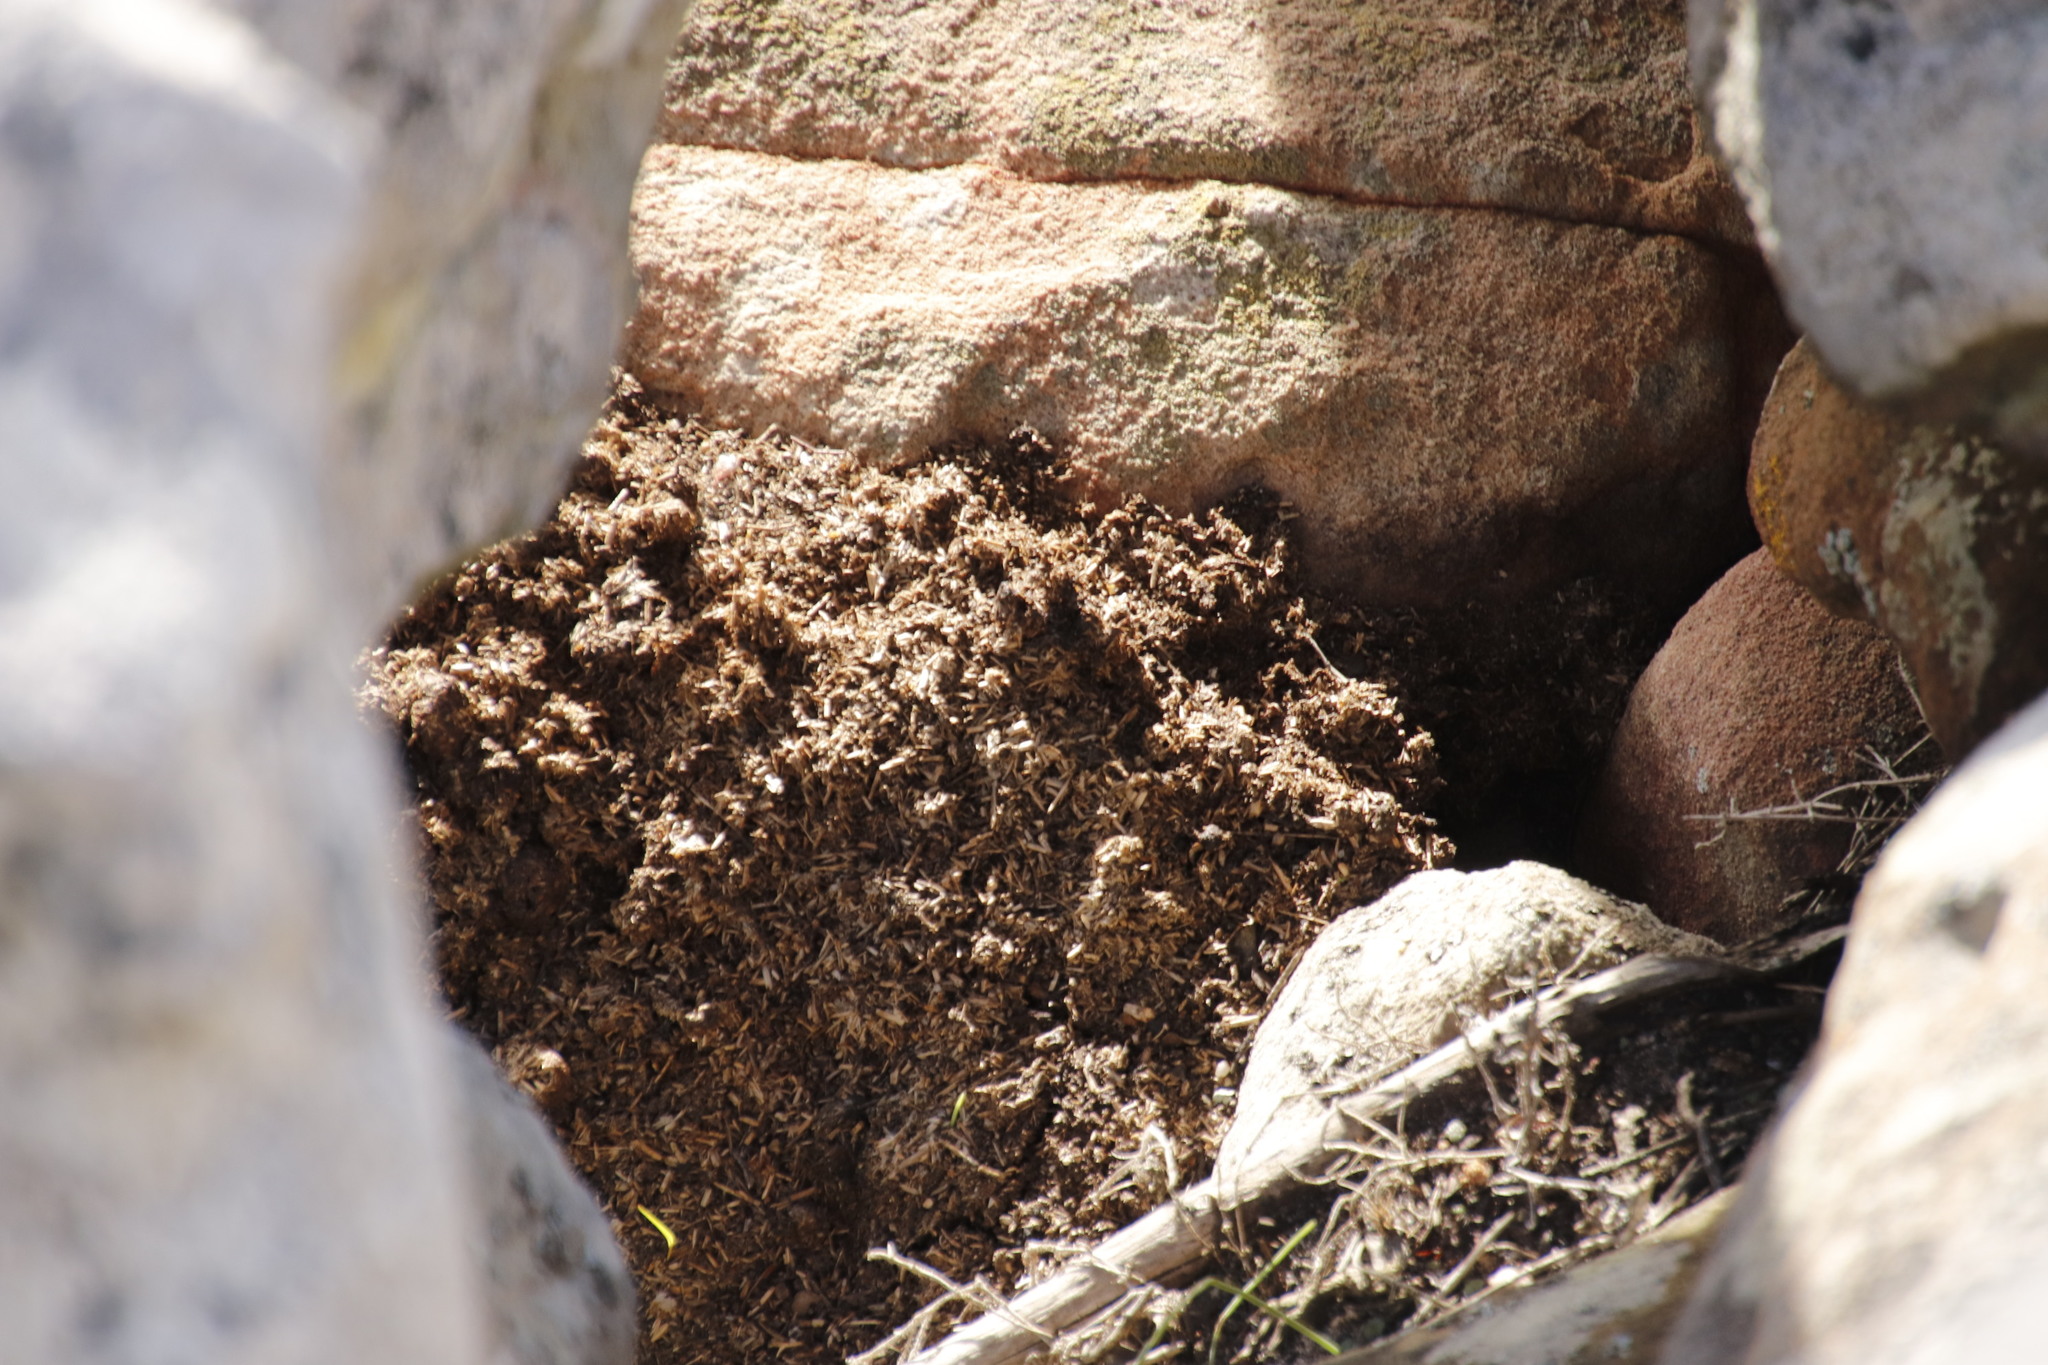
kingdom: Animalia
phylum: Chordata
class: Mammalia
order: Hyracoidea
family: Procaviidae
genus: Procavia
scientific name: Procavia capensis
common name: Rock hyrax
